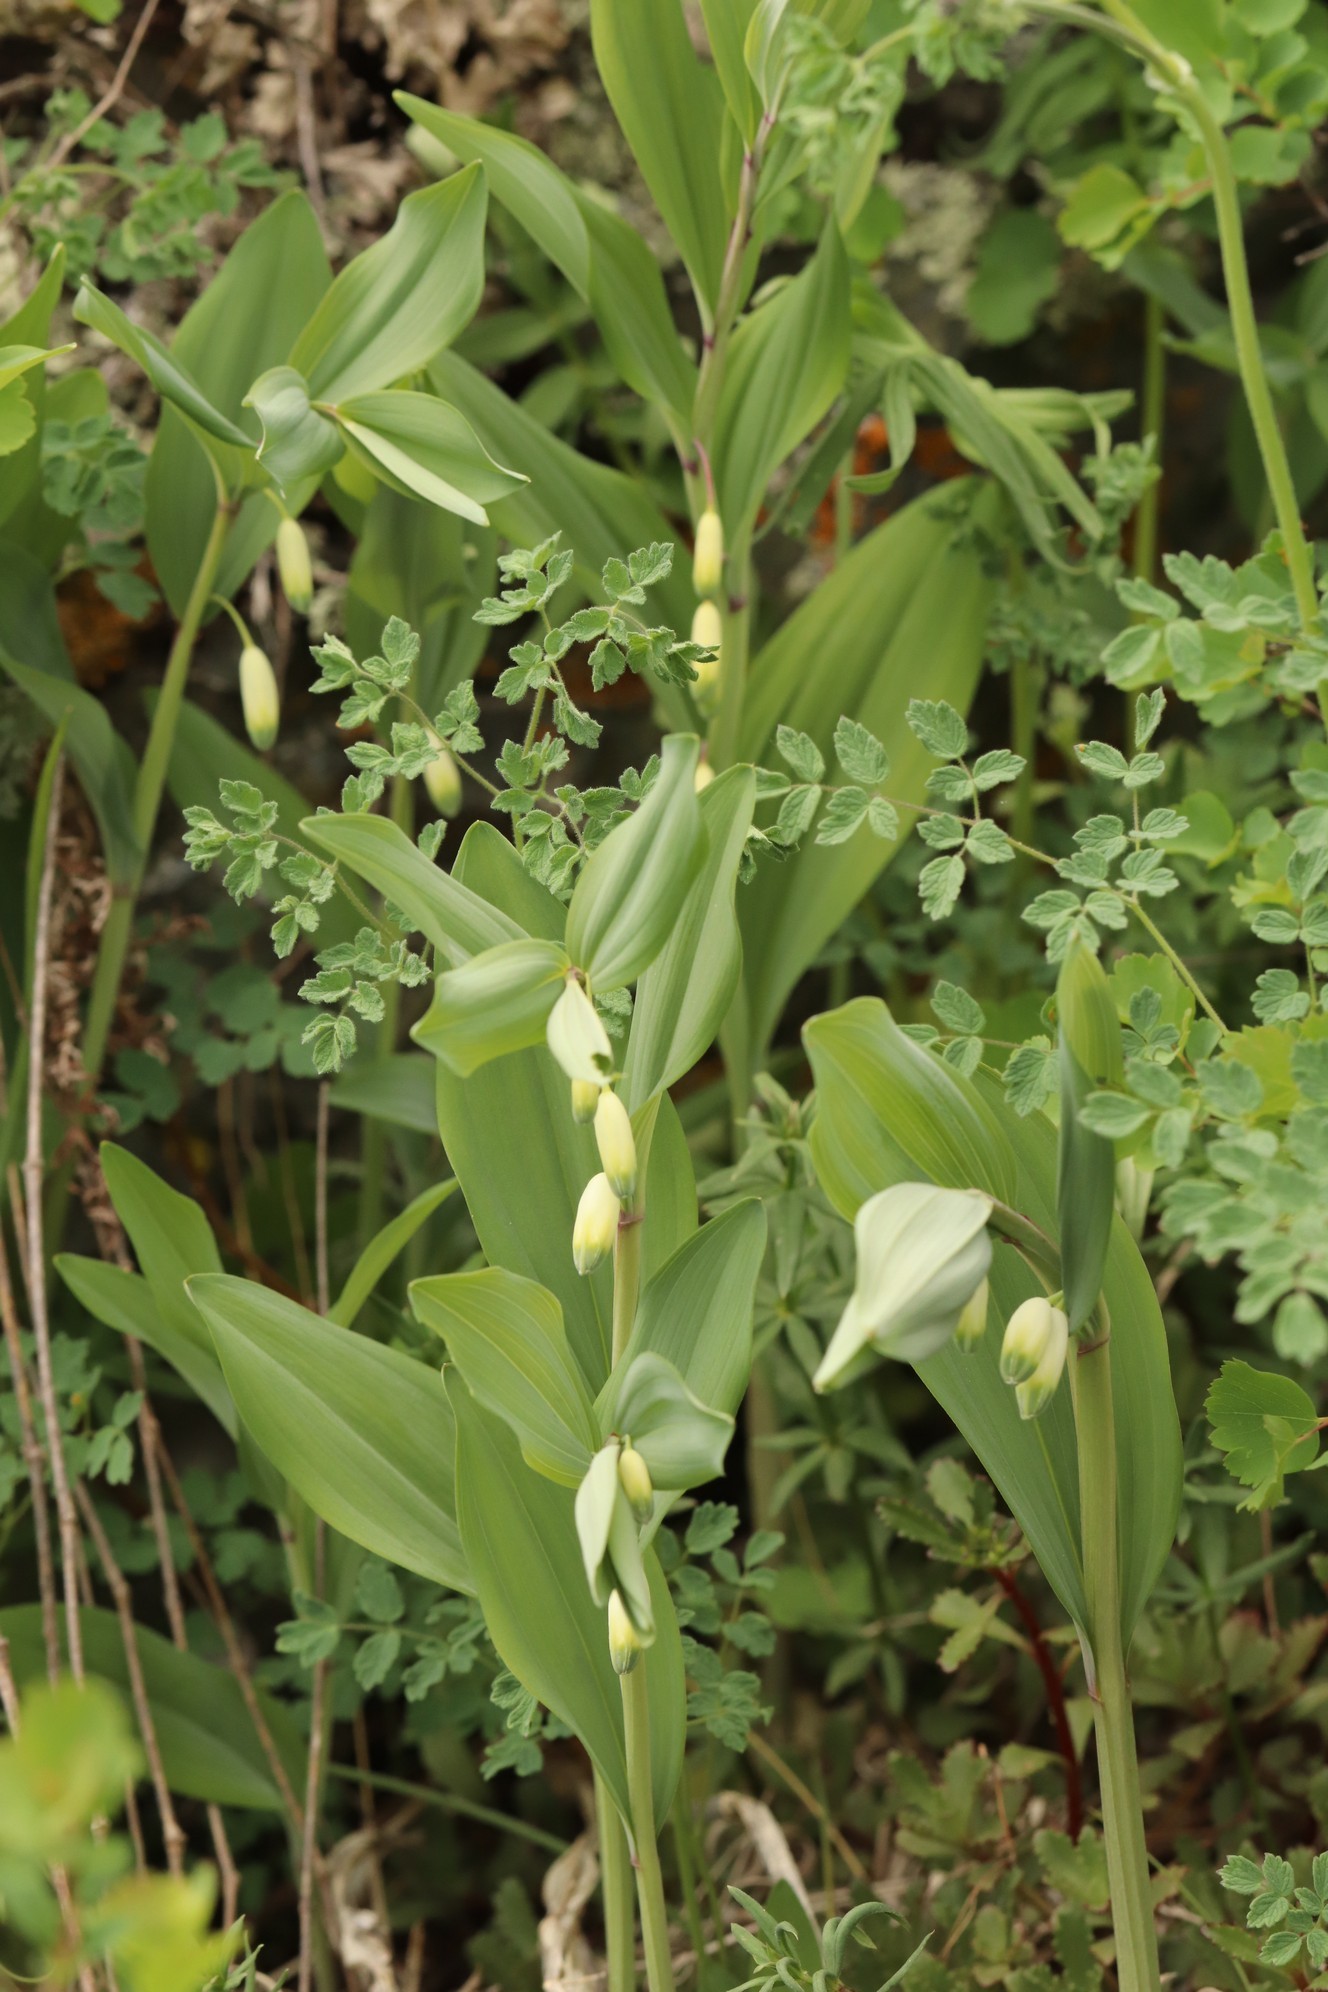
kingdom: Plantae
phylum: Tracheophyta
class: Liliopsida
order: Asparagales
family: Asparagaceae
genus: Polygonatum
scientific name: Polygonatum odoratum
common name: Angular solomon's-seal
